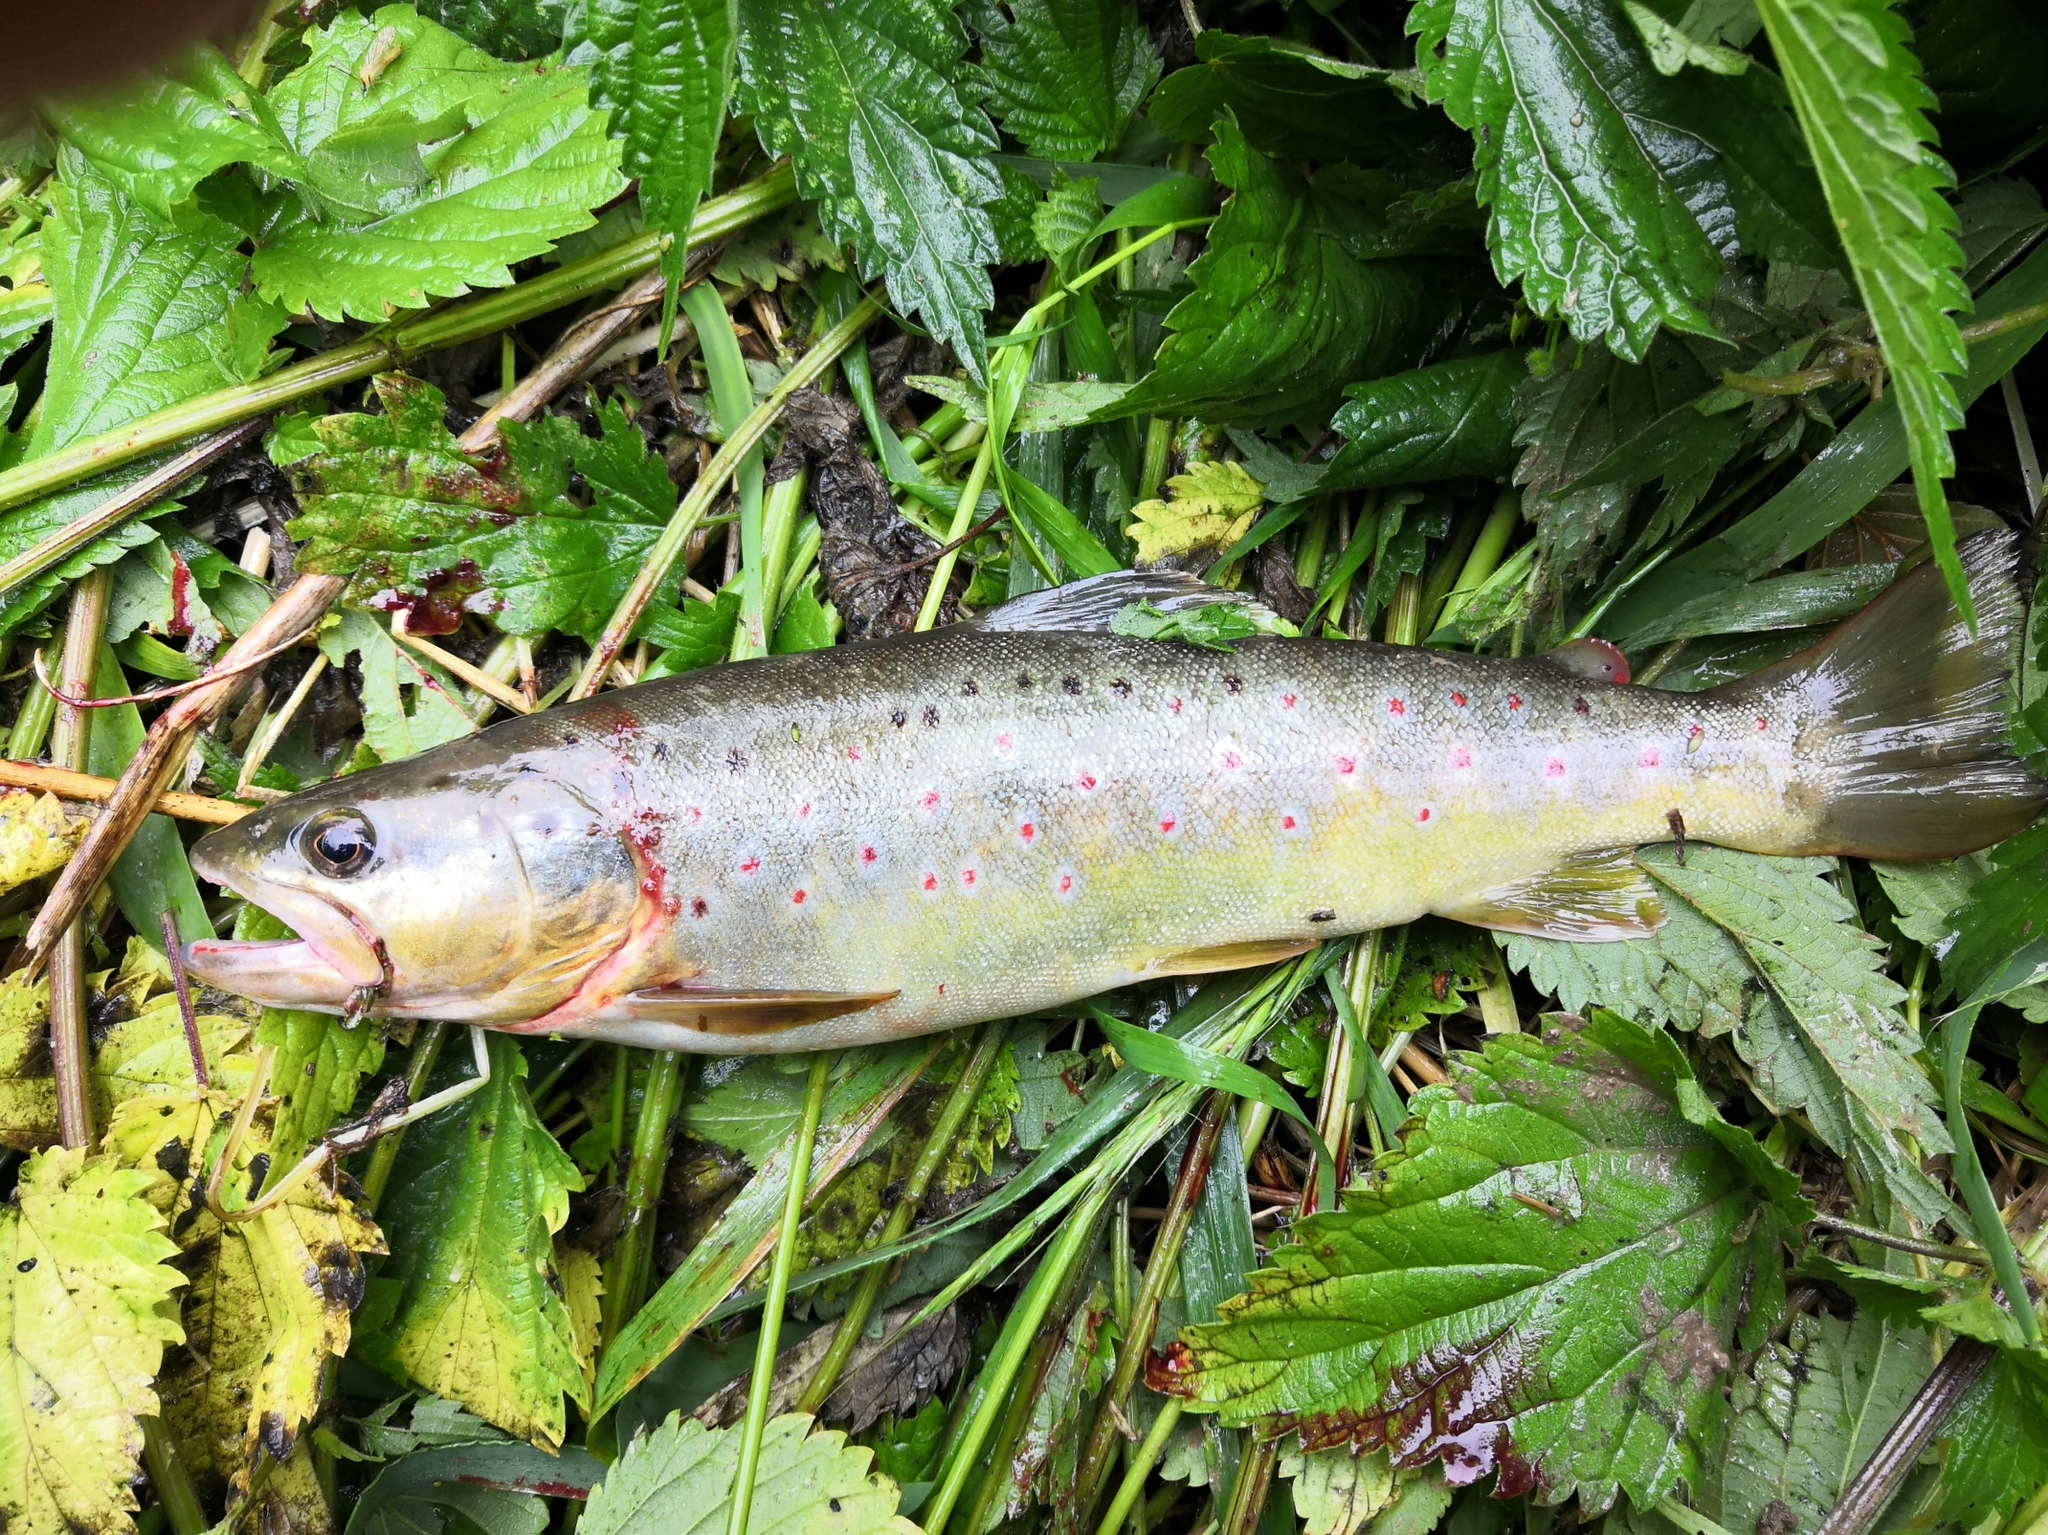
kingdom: Animalia
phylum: Chordata
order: Salmoniformes
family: Salmonidae
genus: Salmo
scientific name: Salmo trutta
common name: Brown trout
